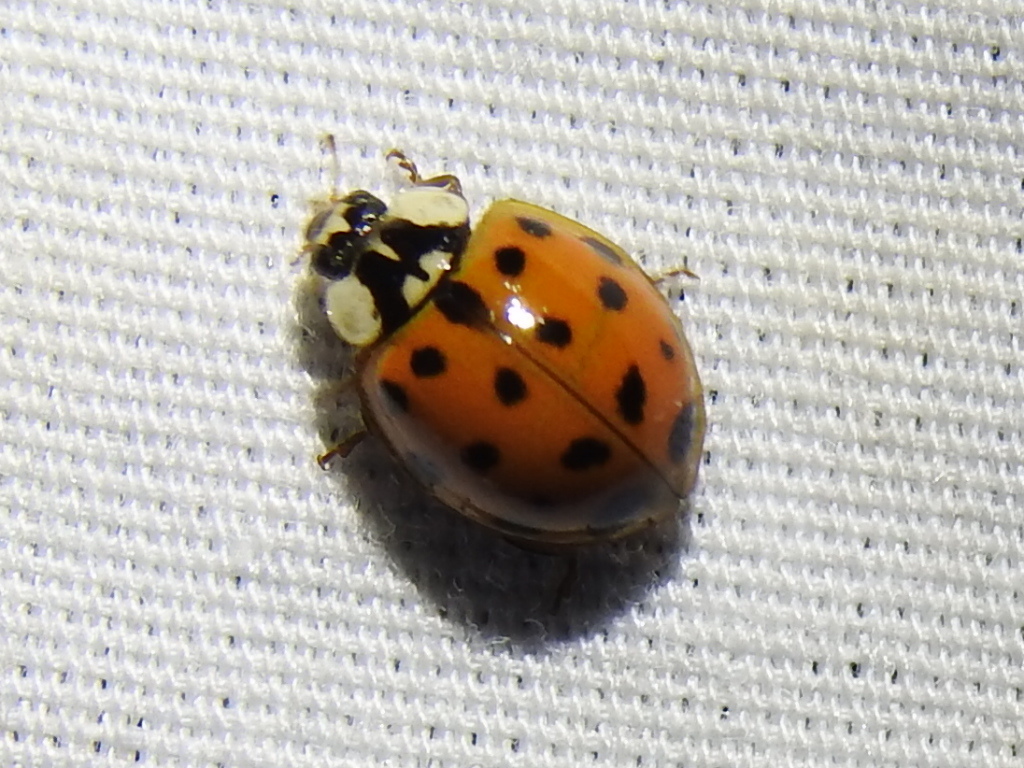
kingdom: Animalia
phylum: Arthropoda
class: Insecta
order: Coleoptera
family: Coccinellidae
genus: Harmonia
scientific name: Harmonia axyridis
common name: Harlequin ladybird
